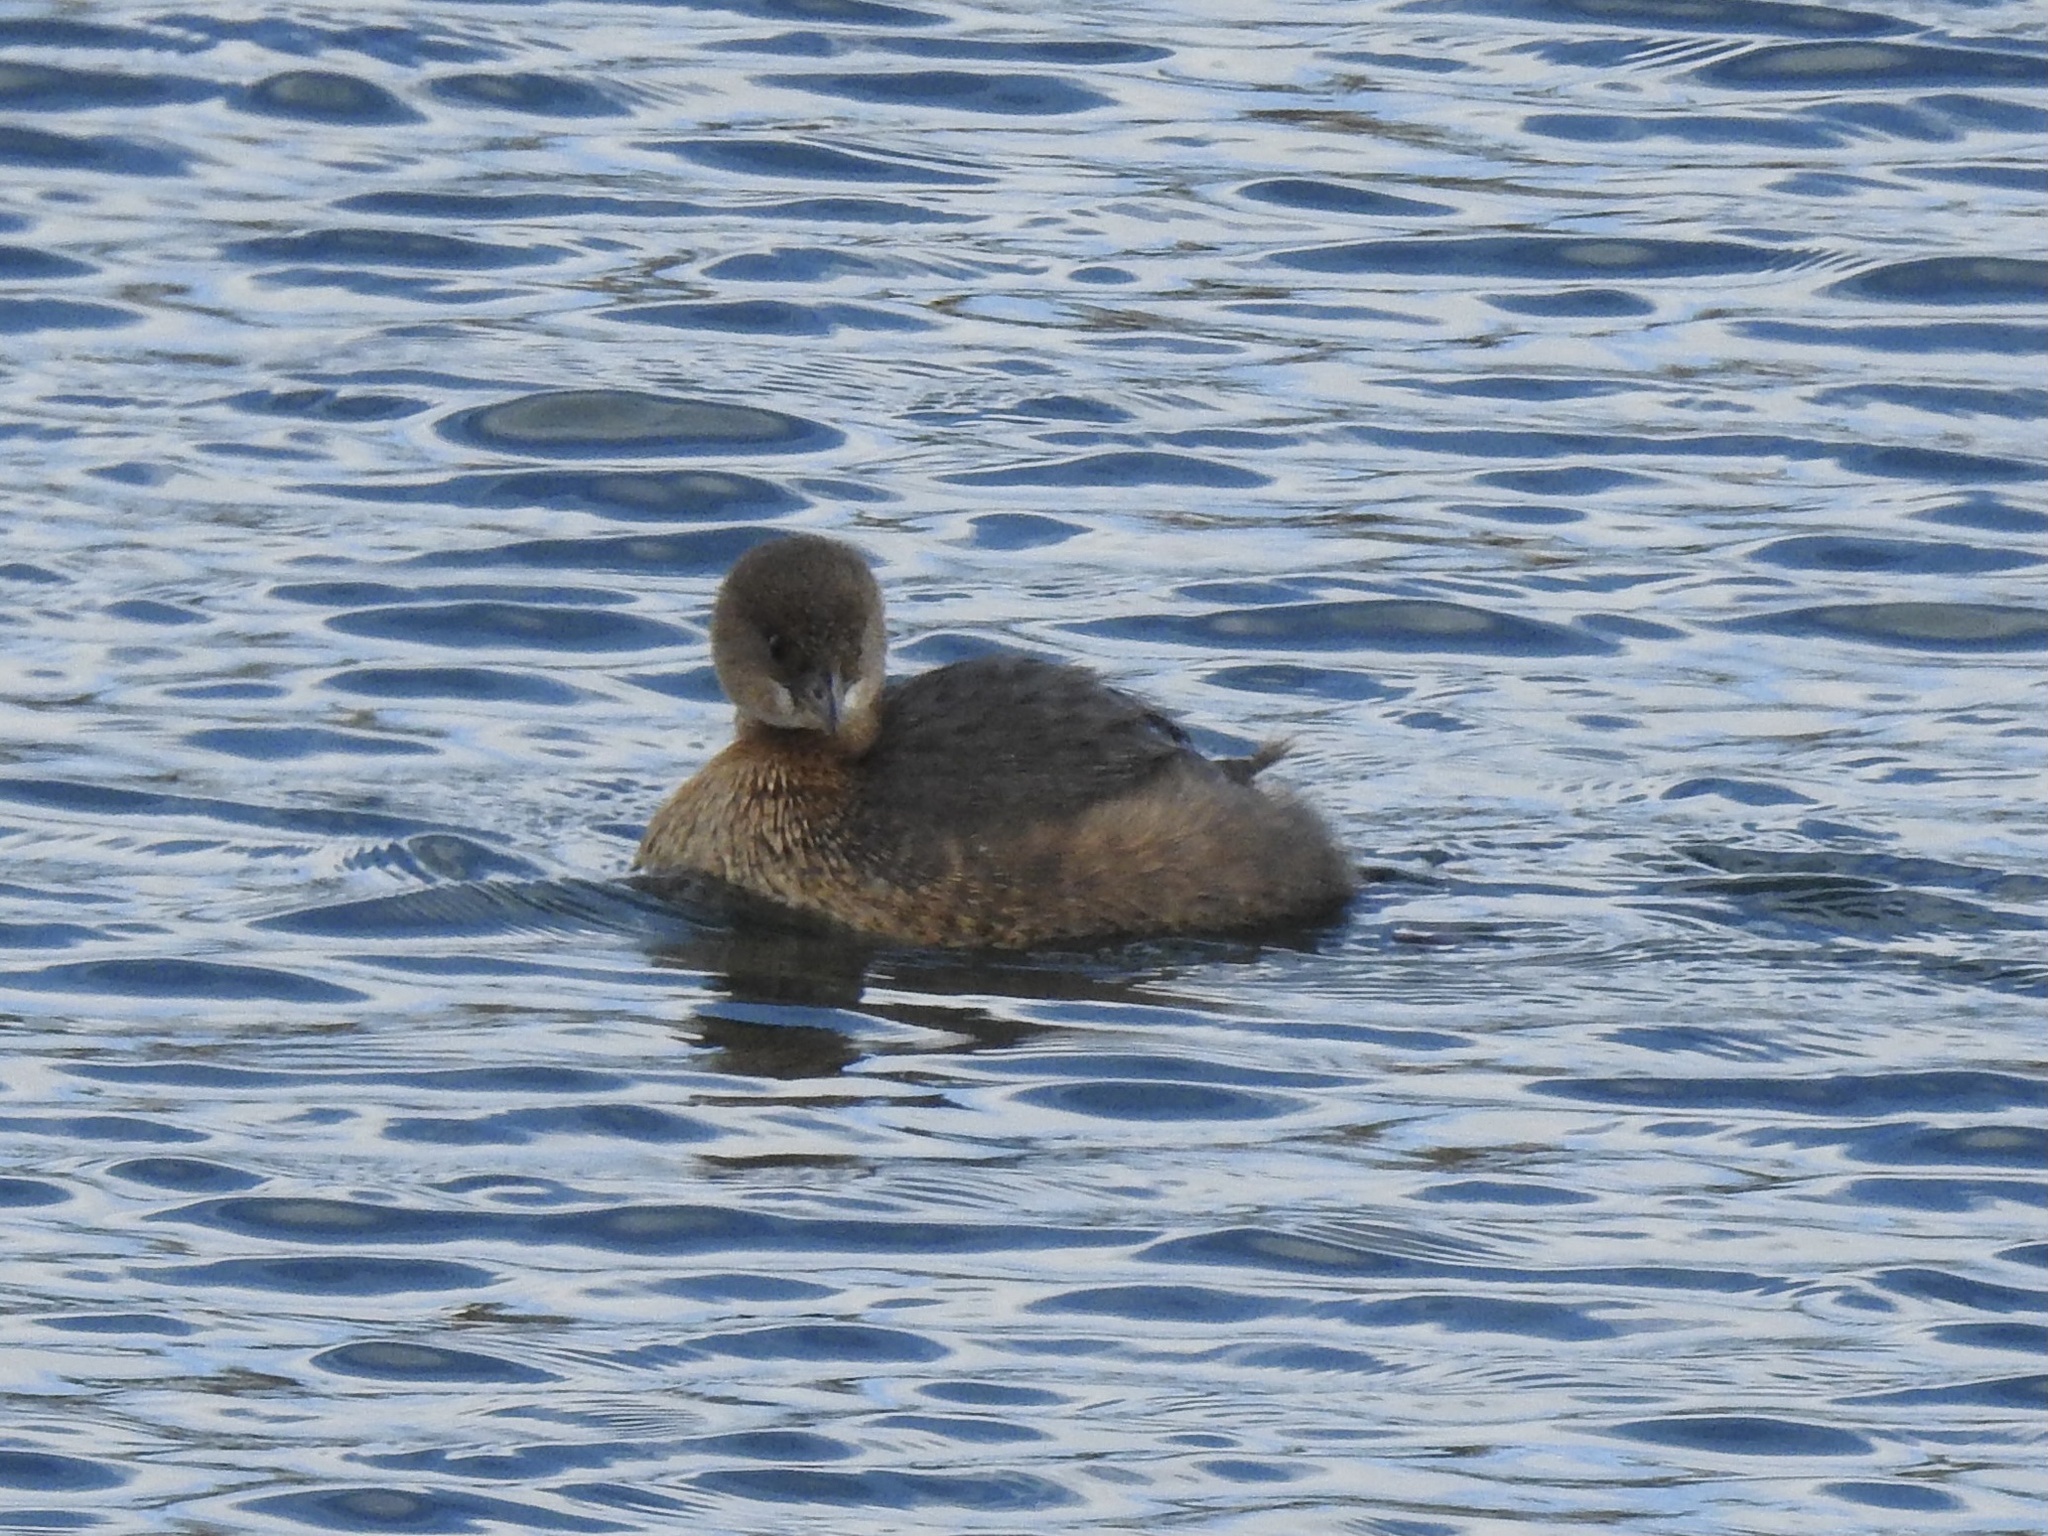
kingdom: Animalia
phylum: Chordata
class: Aves
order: Podicipediformes
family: Podicipedidae
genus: Podilymbus
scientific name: Podilymbus podiceps
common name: Pied-billed grebe
